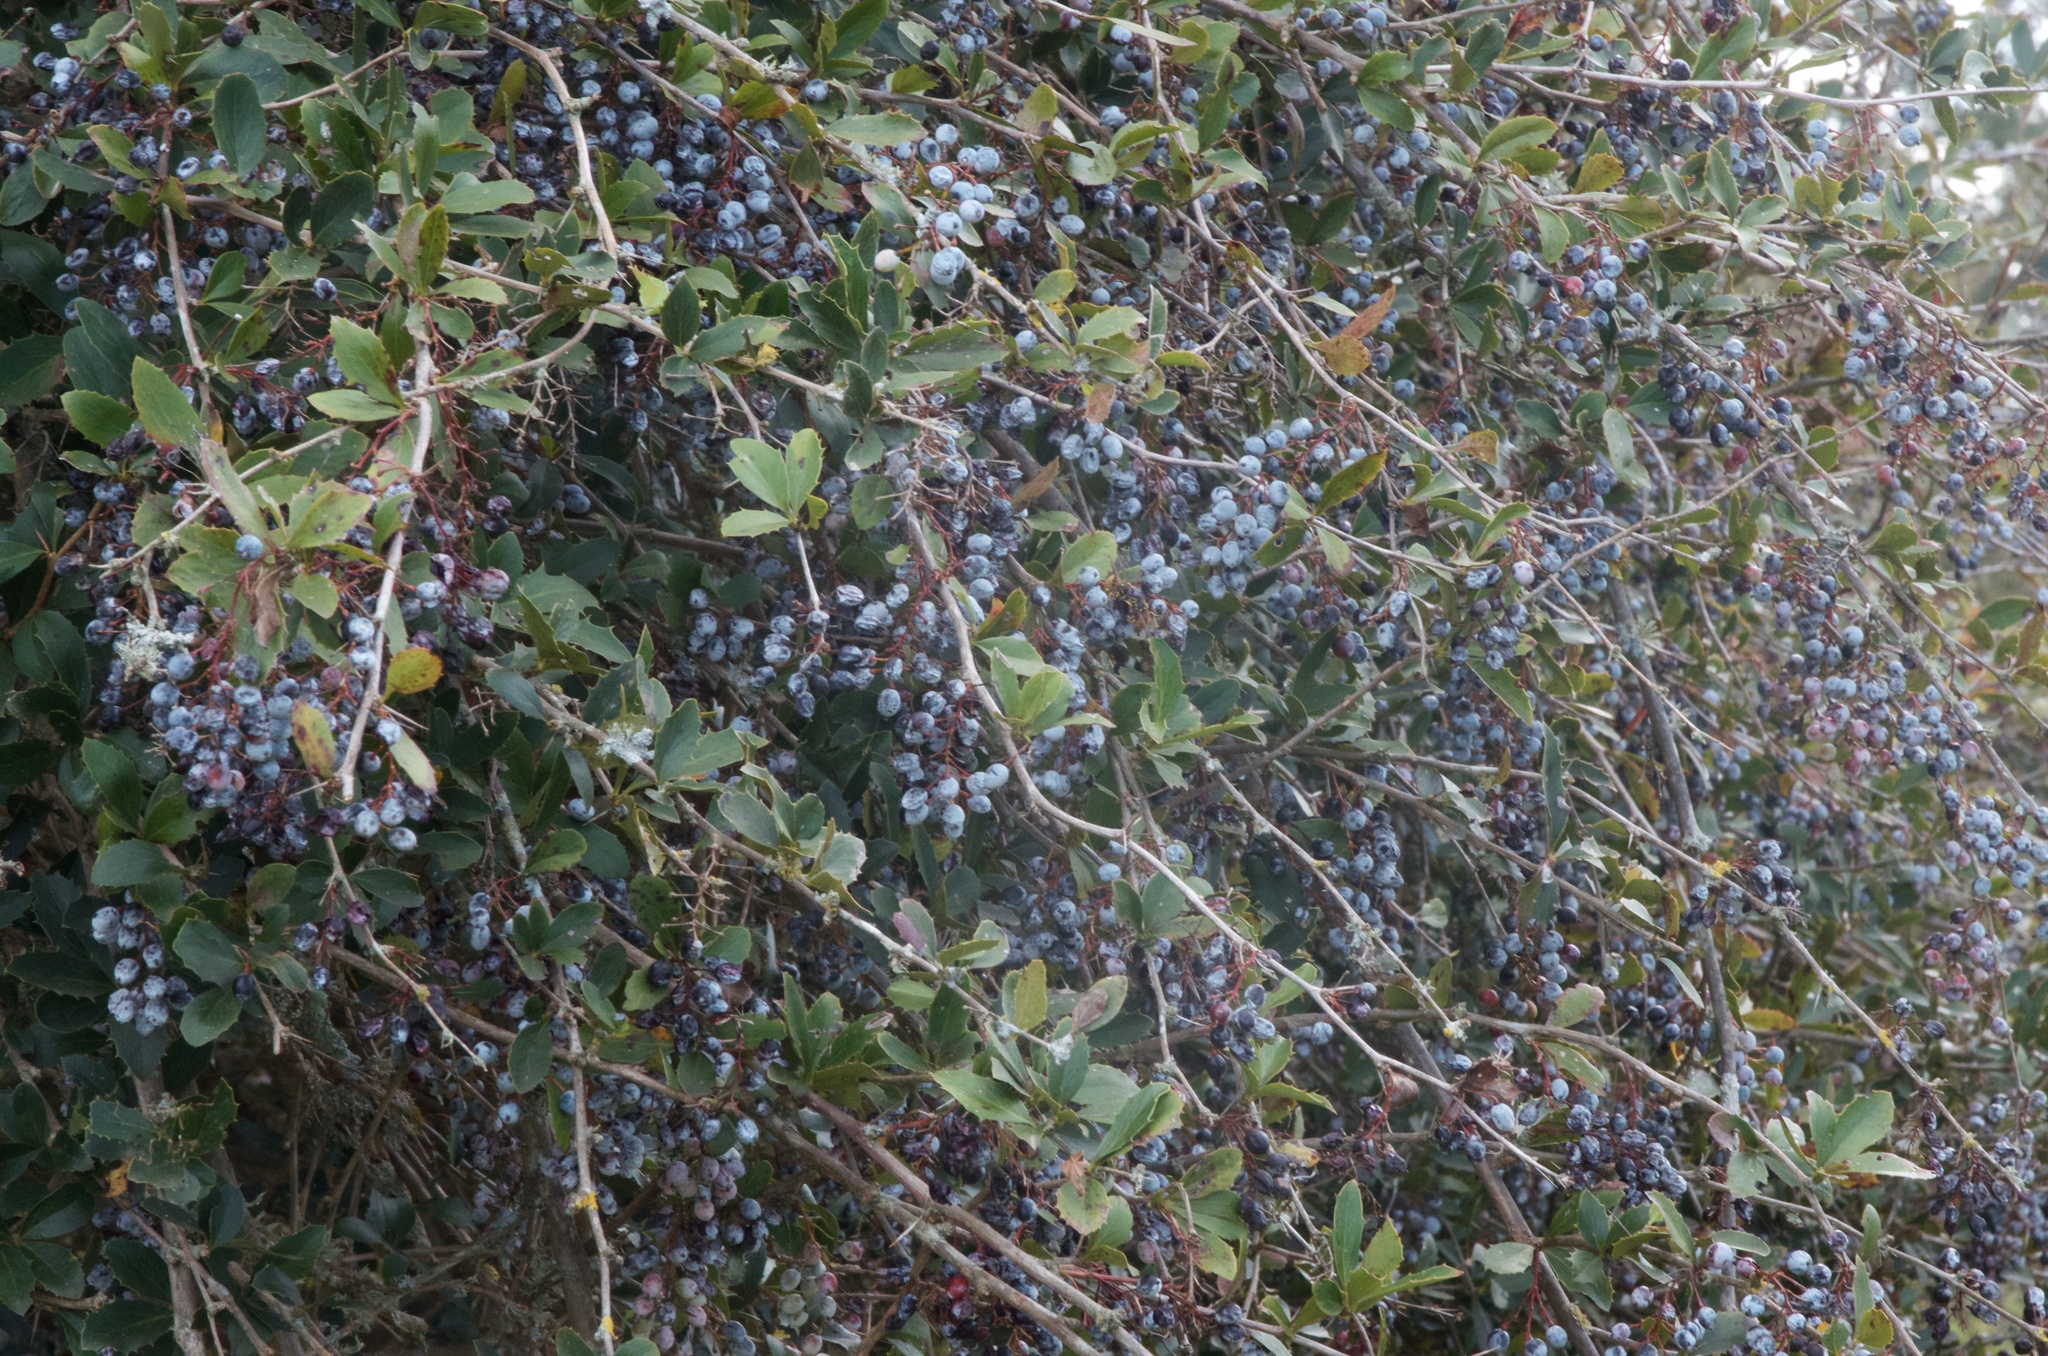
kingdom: Plantae
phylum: Tracheophyta
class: Magnoliopsida
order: Ranunculales
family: Berberidaceae
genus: Berberis
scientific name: Berberis glaucocarpa
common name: Great barberry
